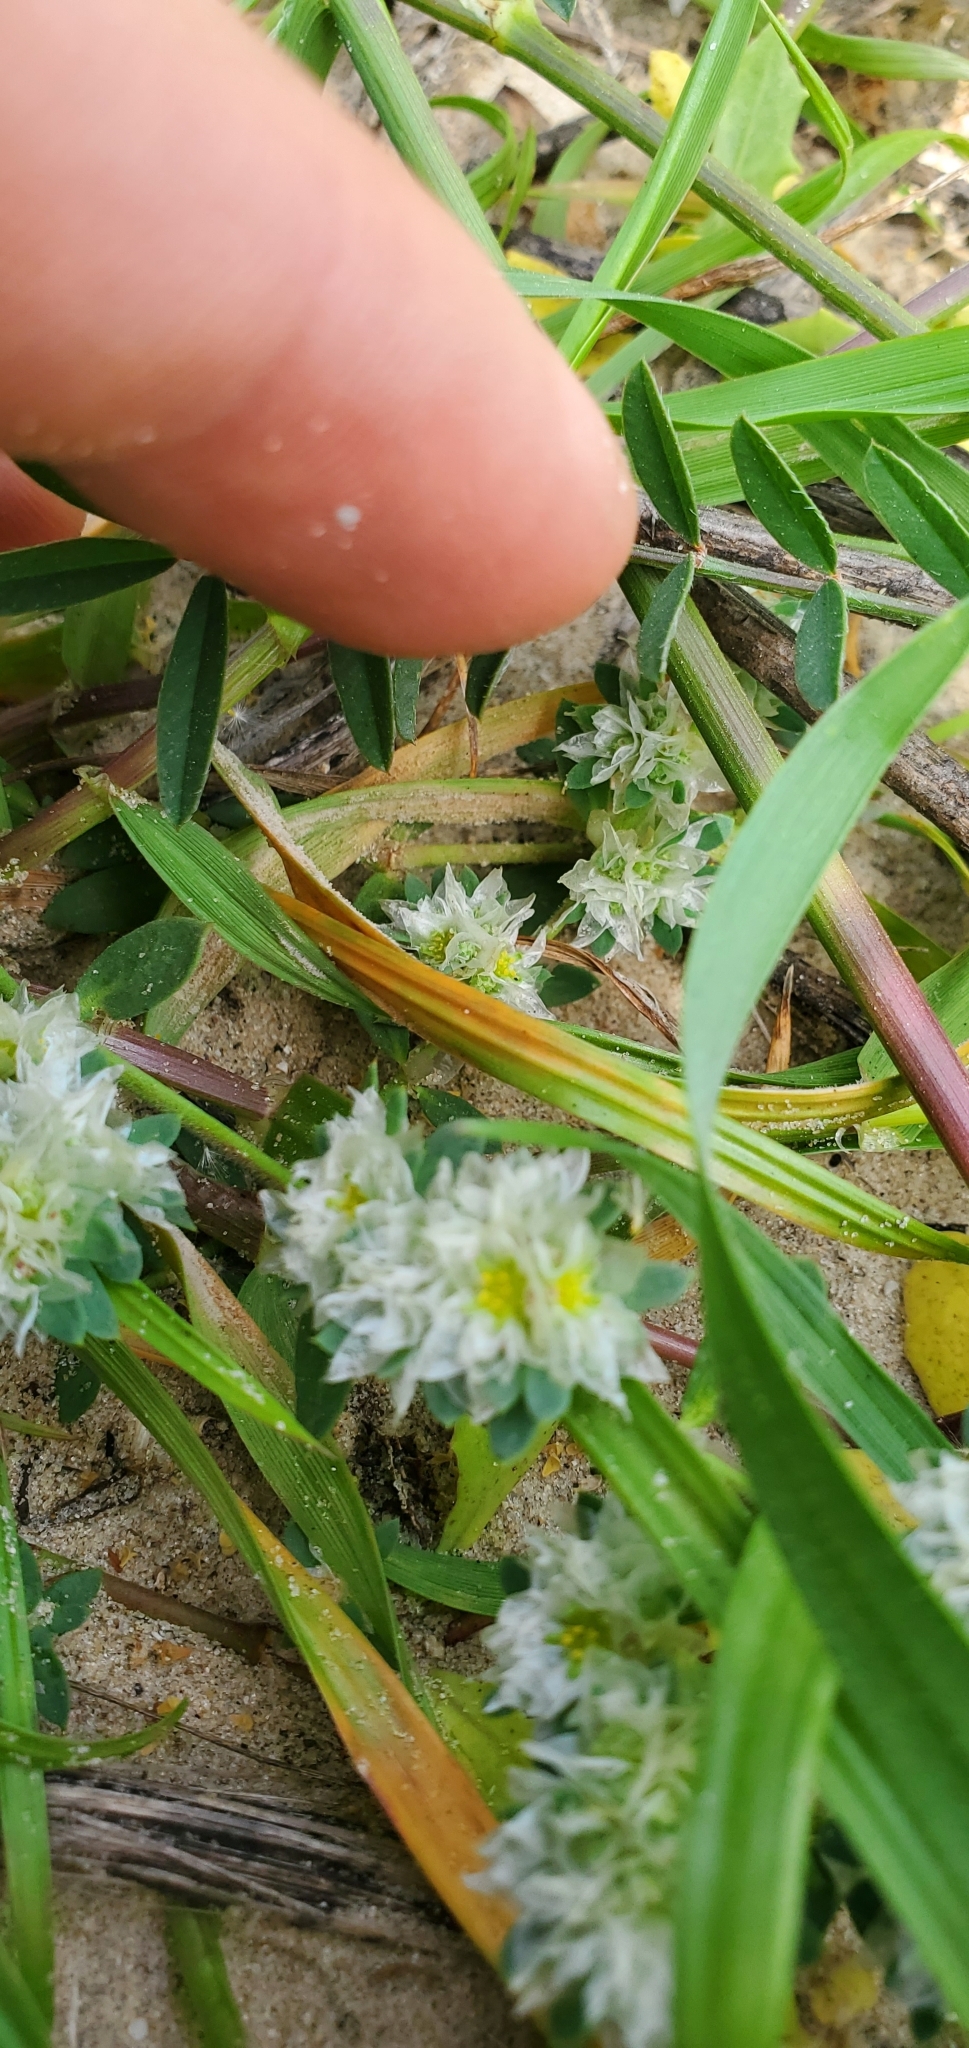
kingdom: Plantae
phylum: Tracheophyta
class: Magnoliopsida
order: Caryophyllales
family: Caryophyllaceae
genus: Paronychia
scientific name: Paronychia argentea
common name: Silver nailroot
